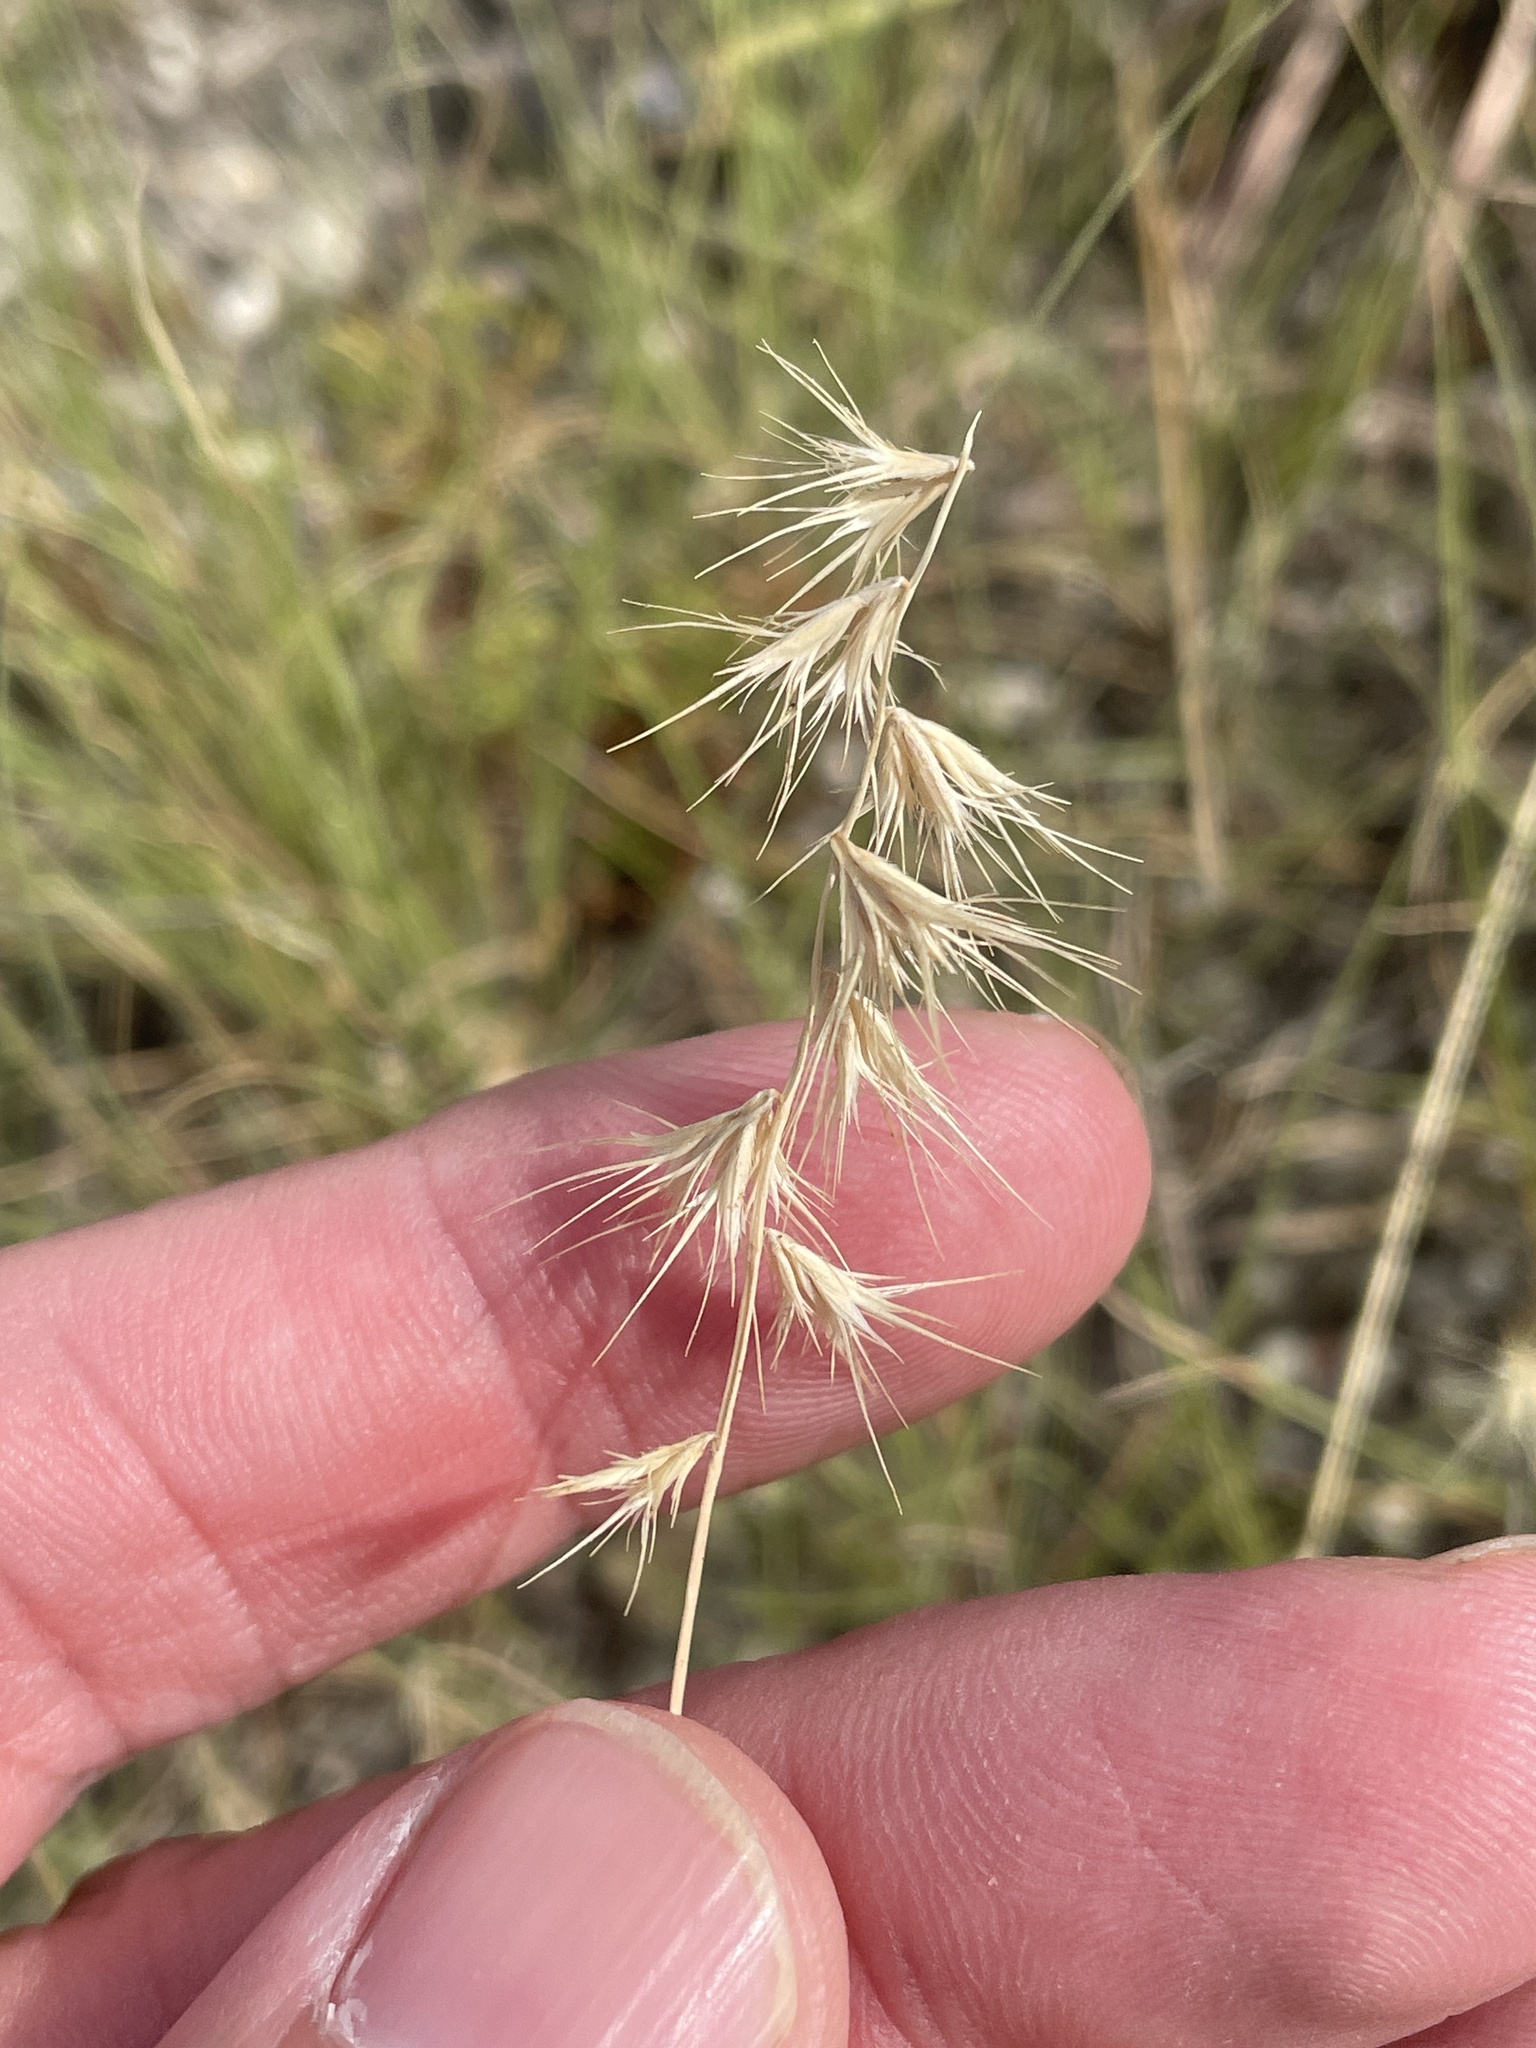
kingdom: Plantae
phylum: Tracheophyta
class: Liliopsida
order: Poales
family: Poaceae
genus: Bouteloua
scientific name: Bouteloua rigidiseta
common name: Texas grama
